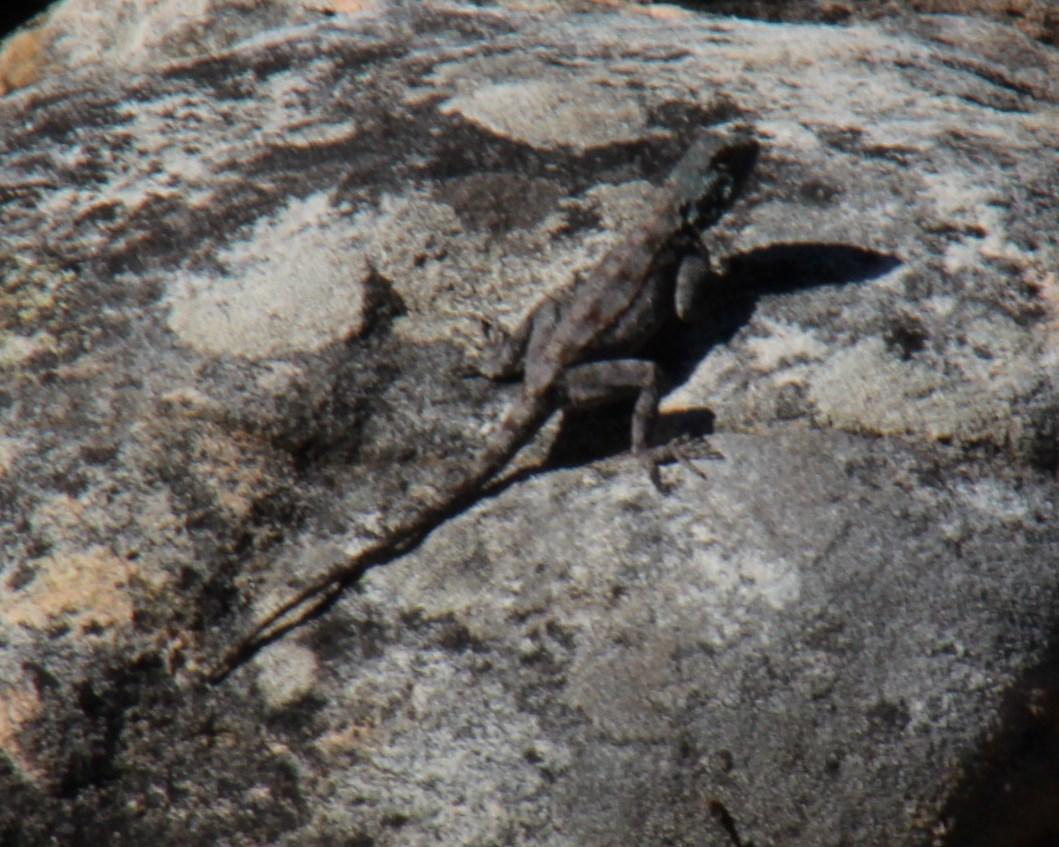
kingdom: Animalia
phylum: Chordata
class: Squamata
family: Agamidae
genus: Agama
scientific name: Agama atra
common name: Southern african rock agama
